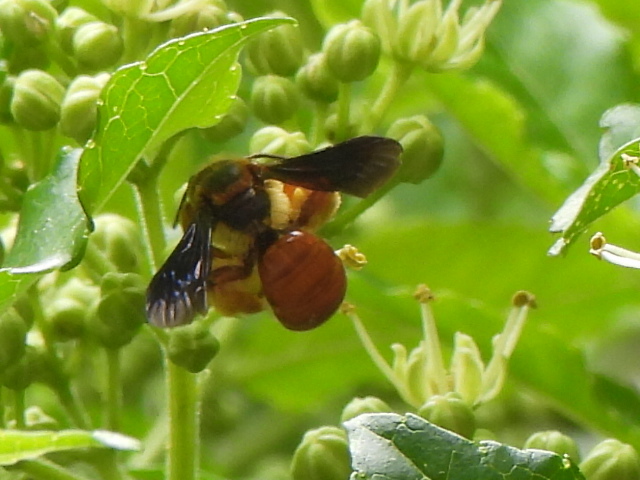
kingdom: Animalia
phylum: Arthropoda
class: Insecta
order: Hymenoptera
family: Andrenidae
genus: Andrena
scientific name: Andrena dolomellea
